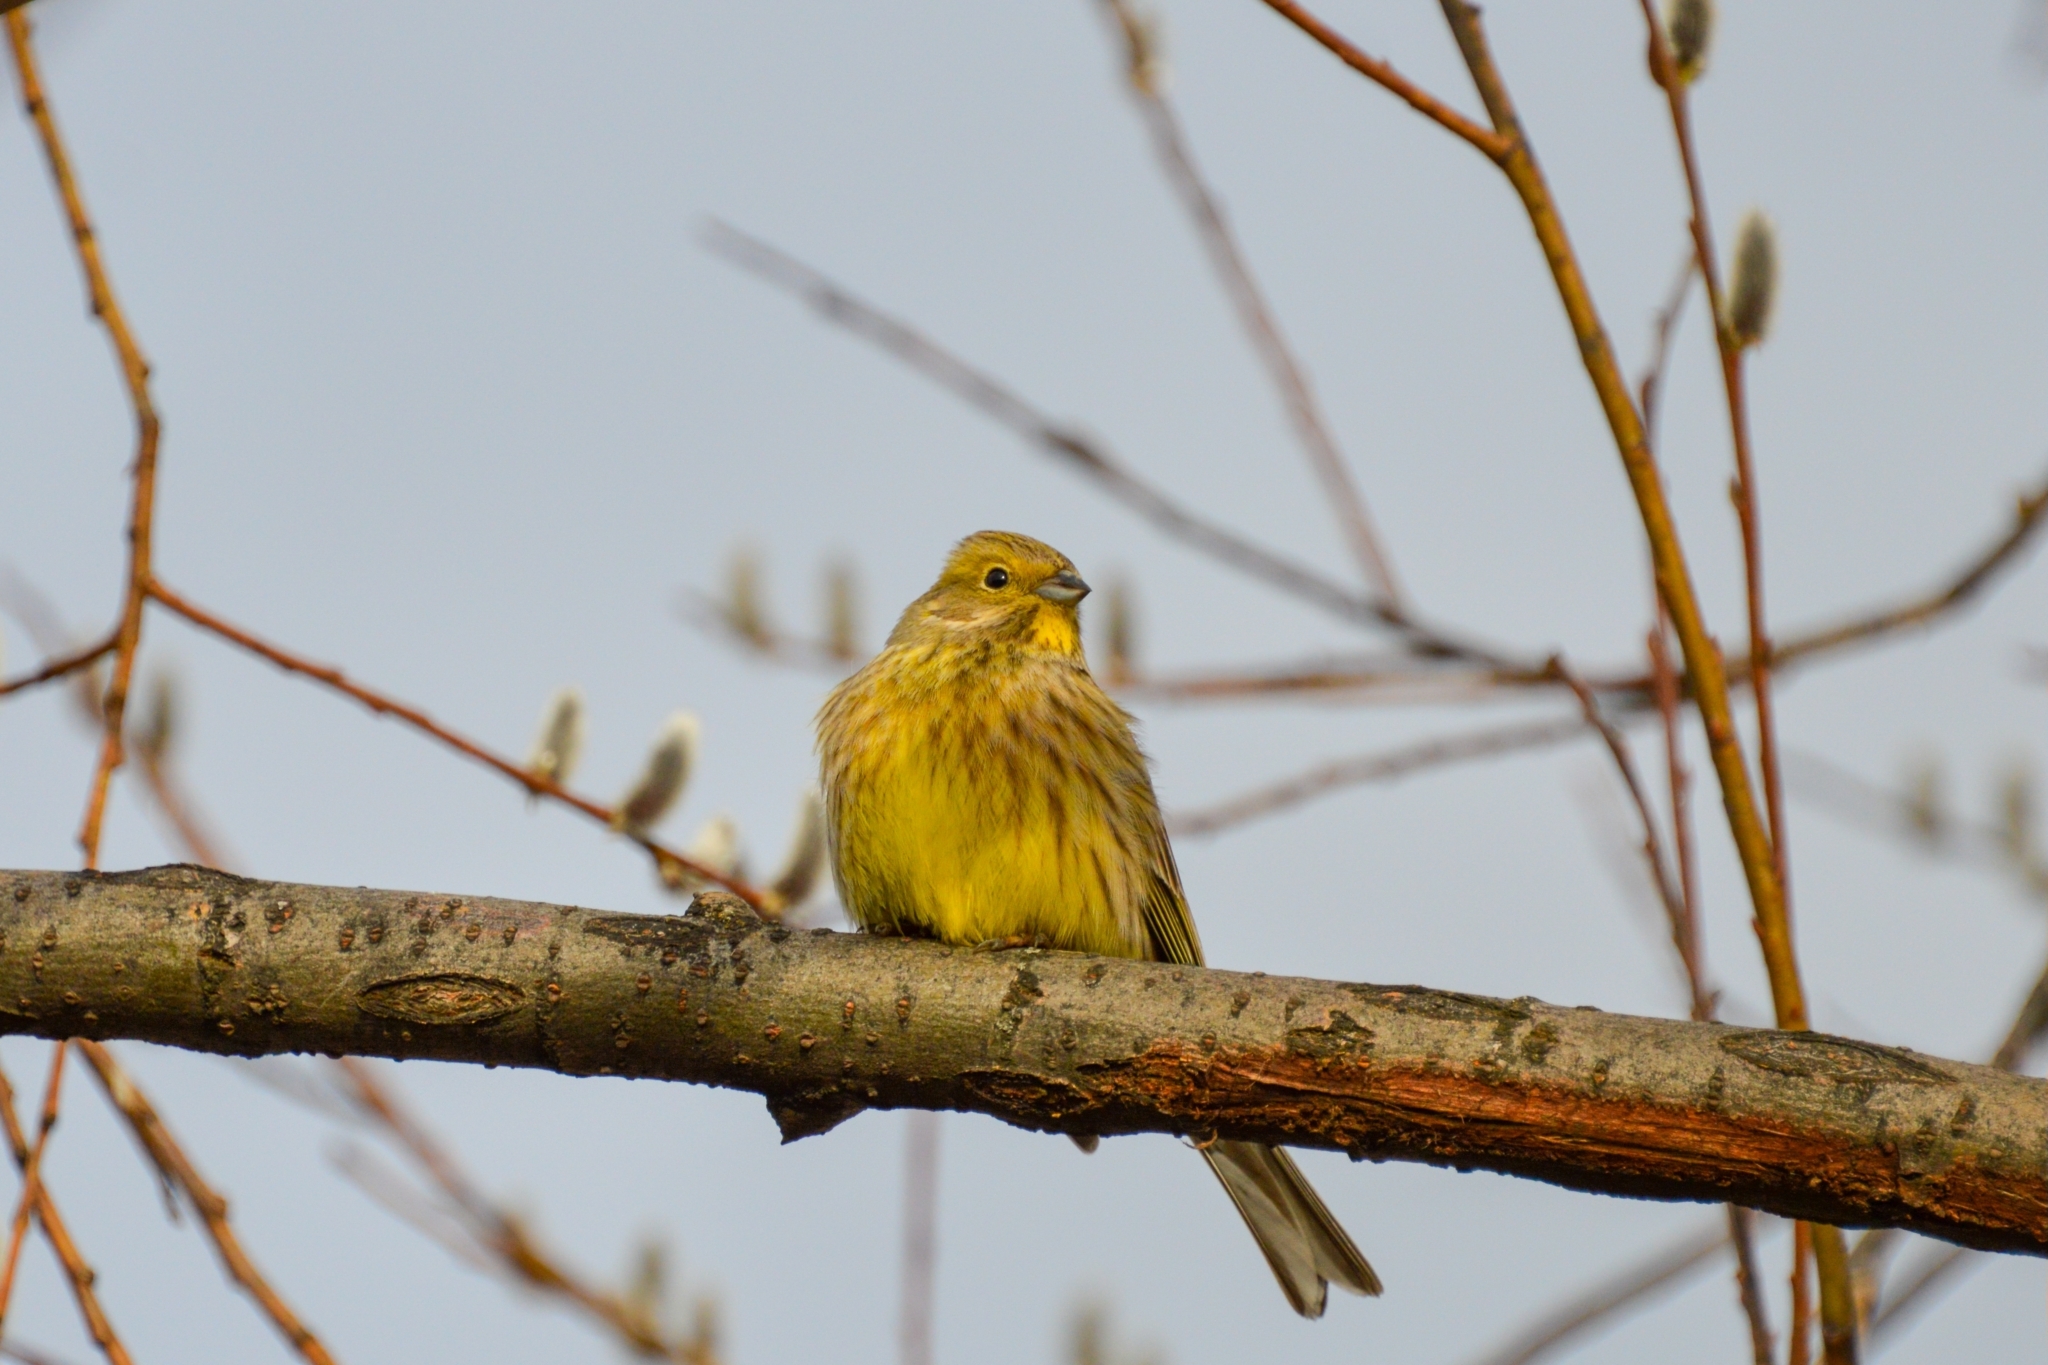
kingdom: Animalia
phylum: Chordata
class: Aves
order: Passeriformes
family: Emberizidae
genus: Emberiza
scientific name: Emberiza citrinella
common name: Yellowhammer
